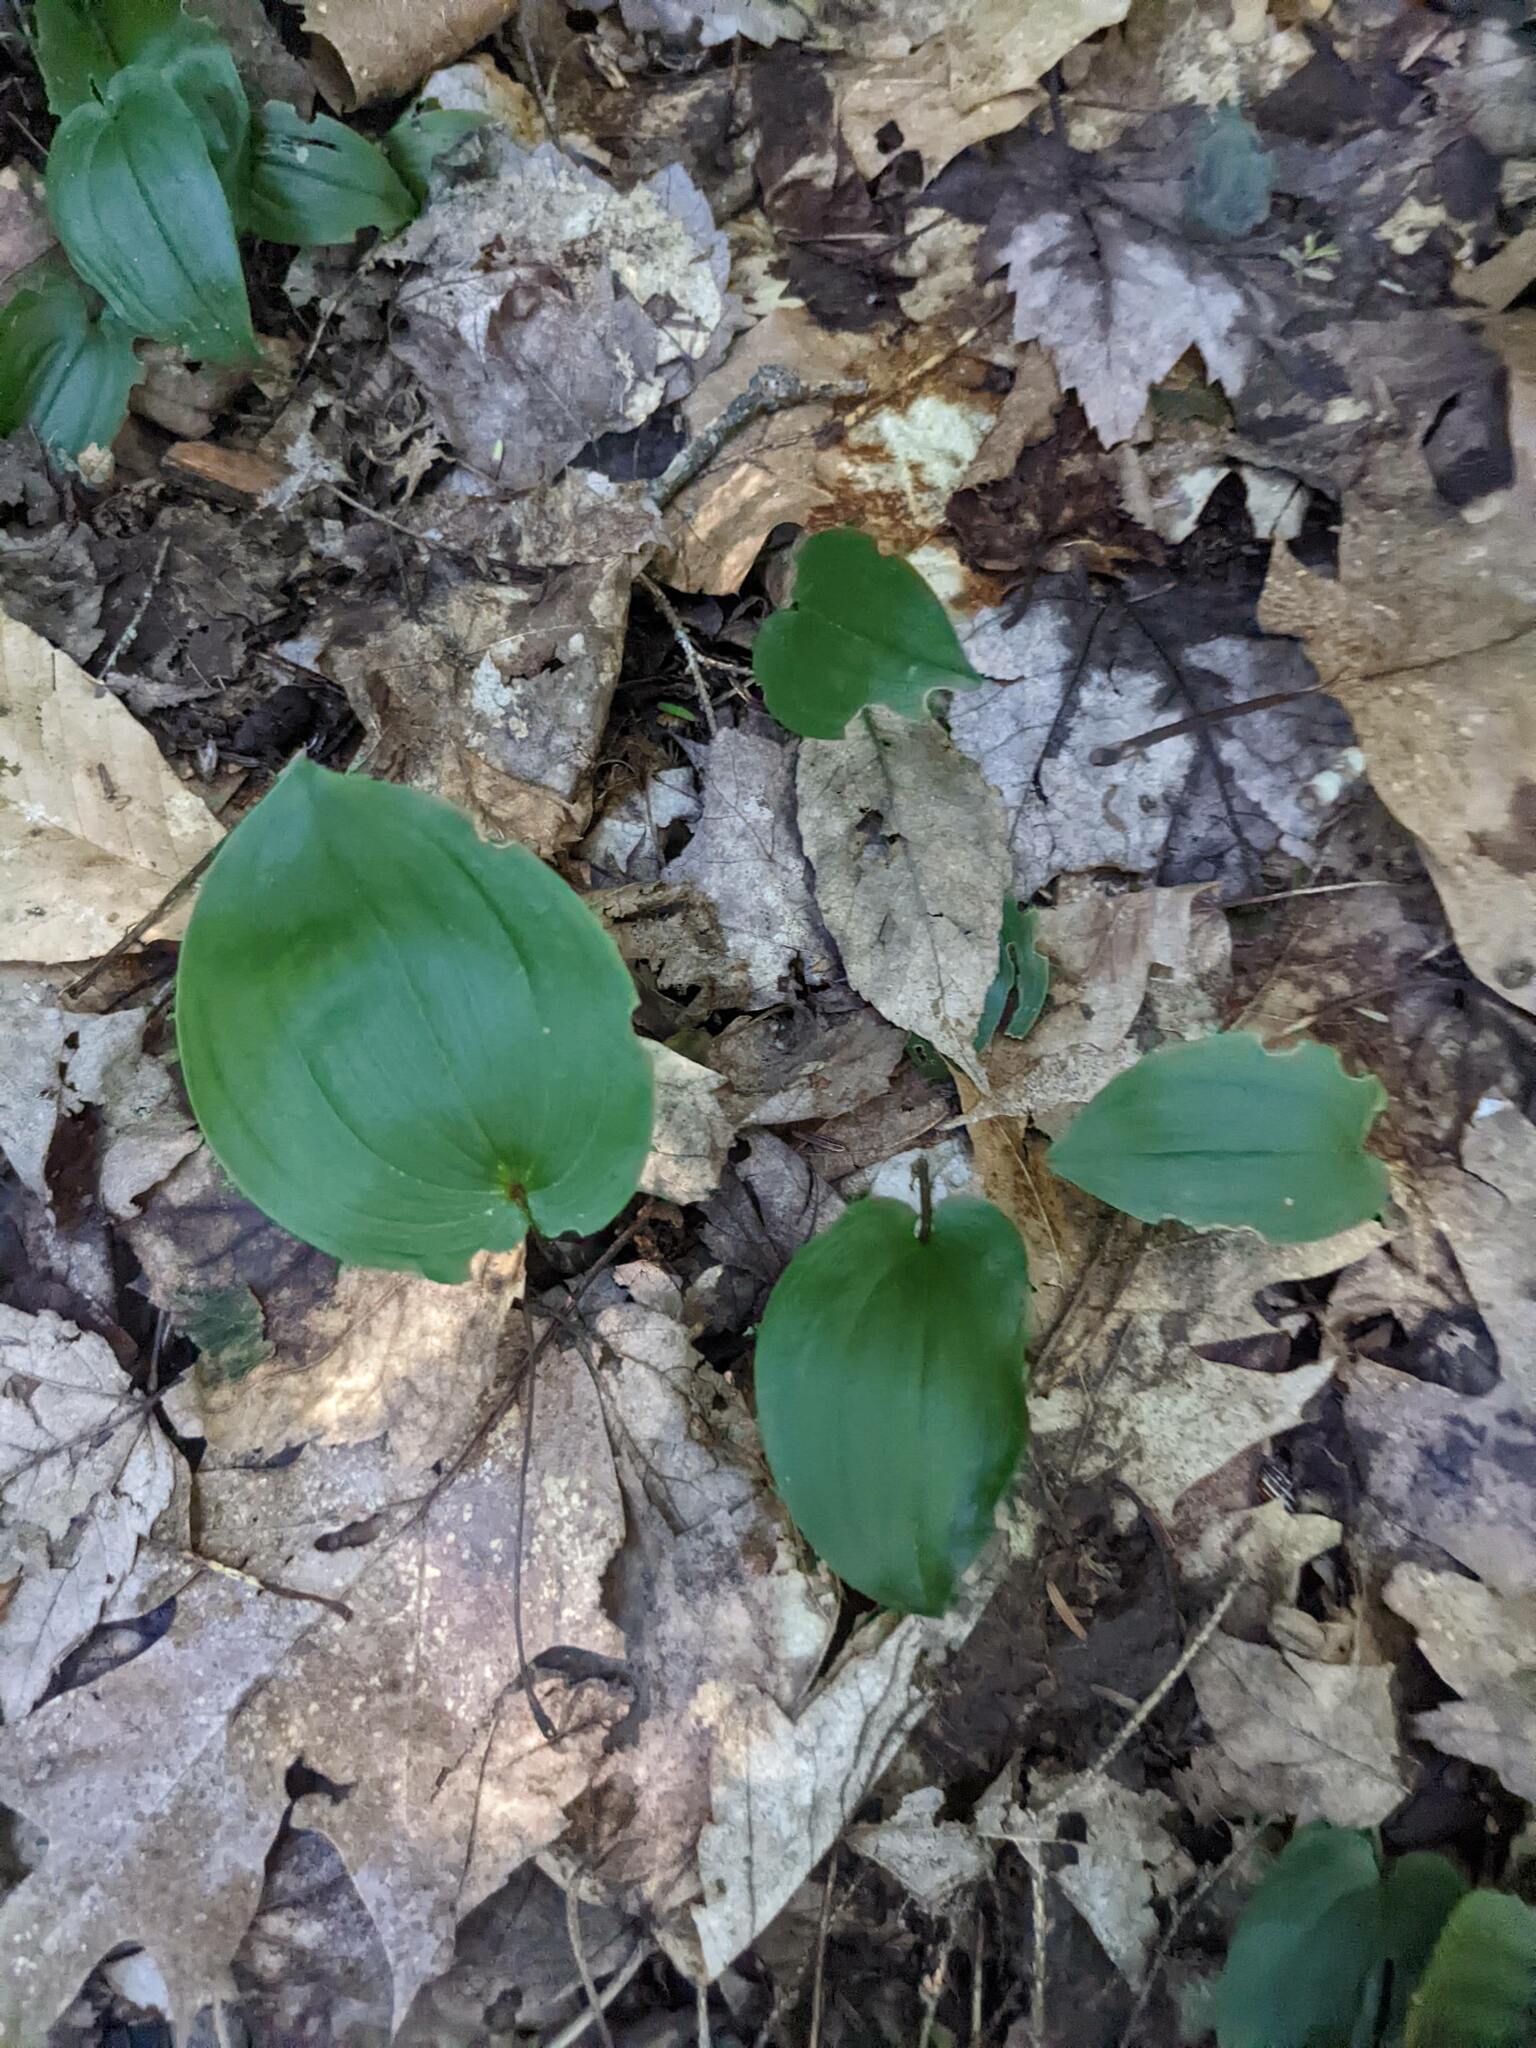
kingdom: Plantae
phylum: Tracheophyta
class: Liliopsida
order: Asparagales
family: Asparagaceae
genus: Maianthemum
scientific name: Maianthemum canadense
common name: False lily-of-the-valley
